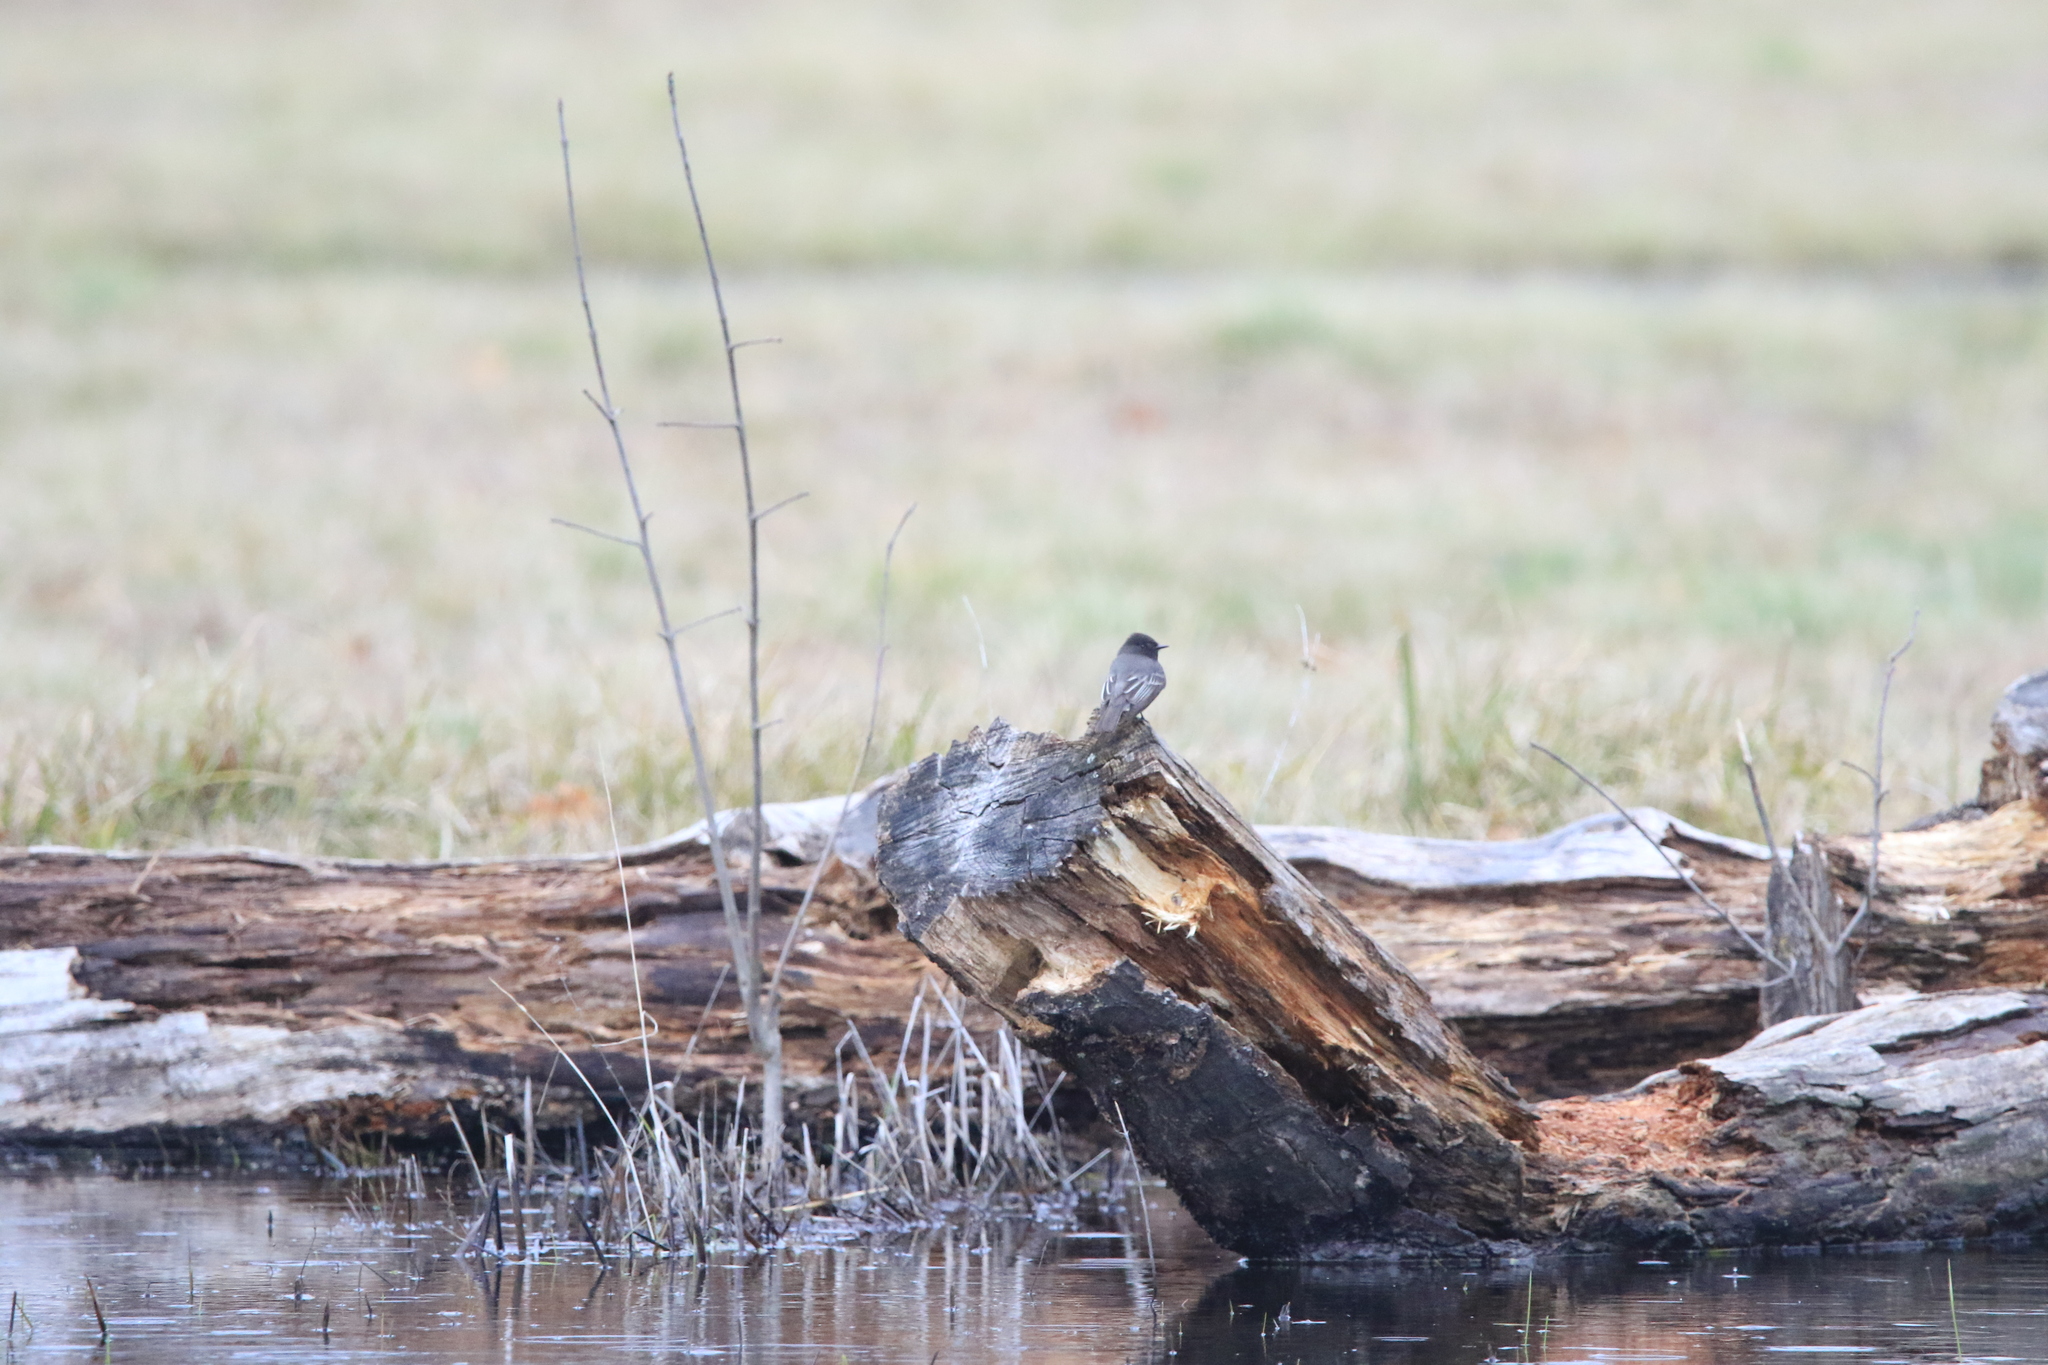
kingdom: Animalia
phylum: Chordata
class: Aves
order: Passeriformes
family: Tyrannidae
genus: Sayornis
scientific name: Sayornis nigricans
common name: Black phoebe
